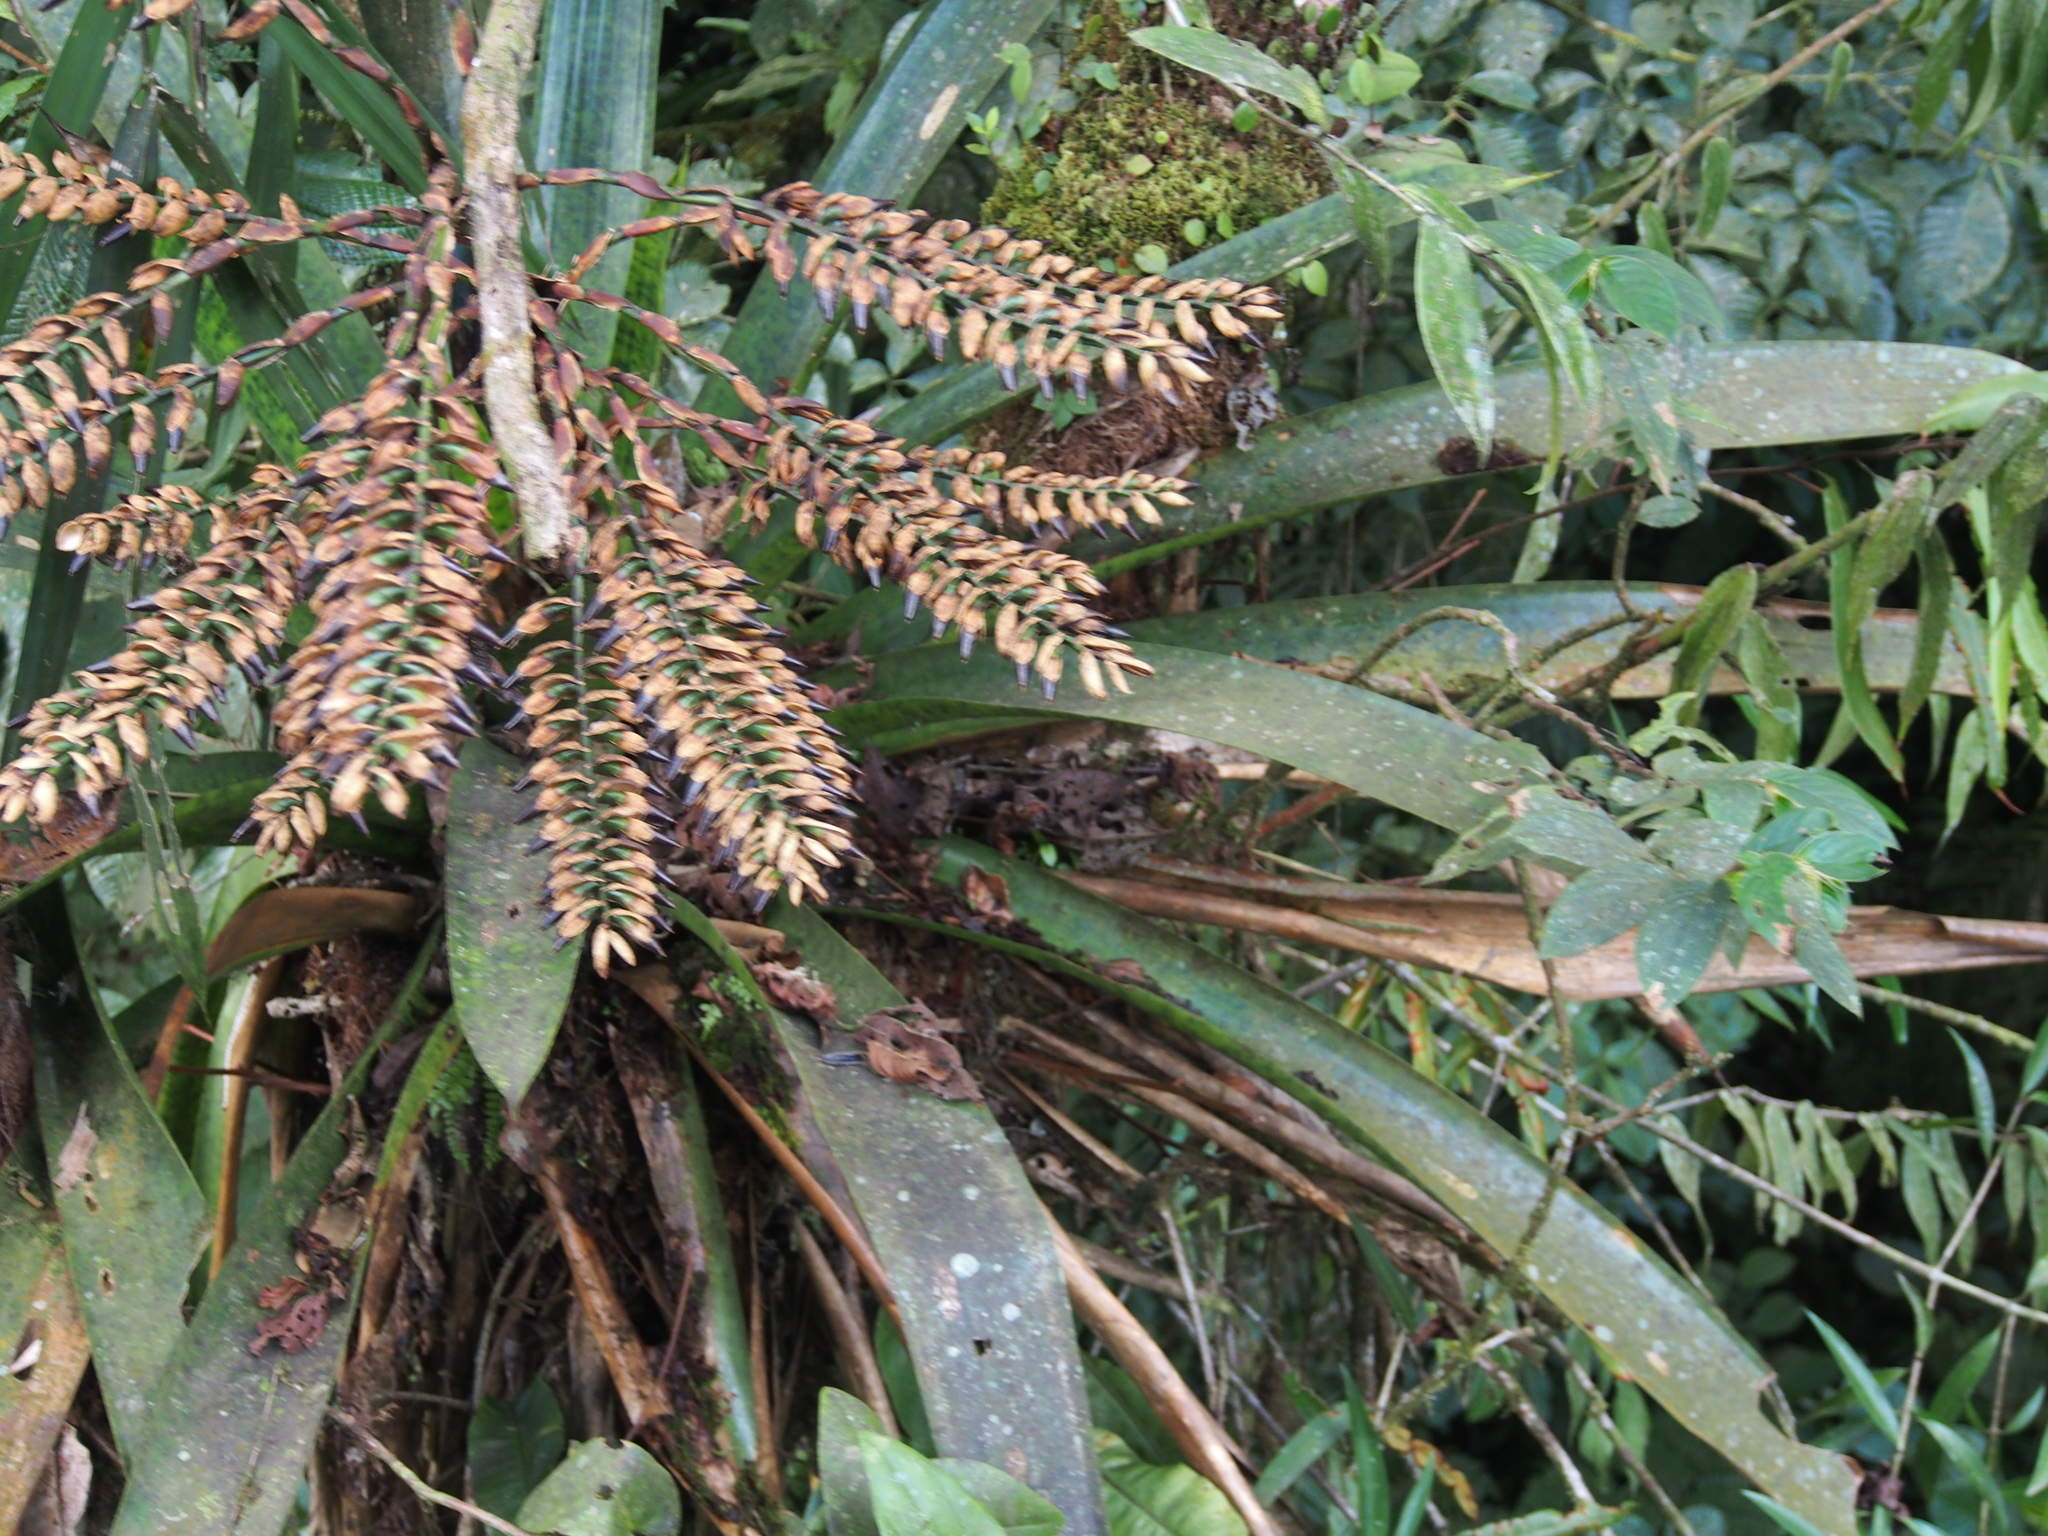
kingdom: Plantae
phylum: Tracheophyta
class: Liliopsida
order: Poales
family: Bromeliaceae
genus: Werauhia
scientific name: Werauhia kupperiana
